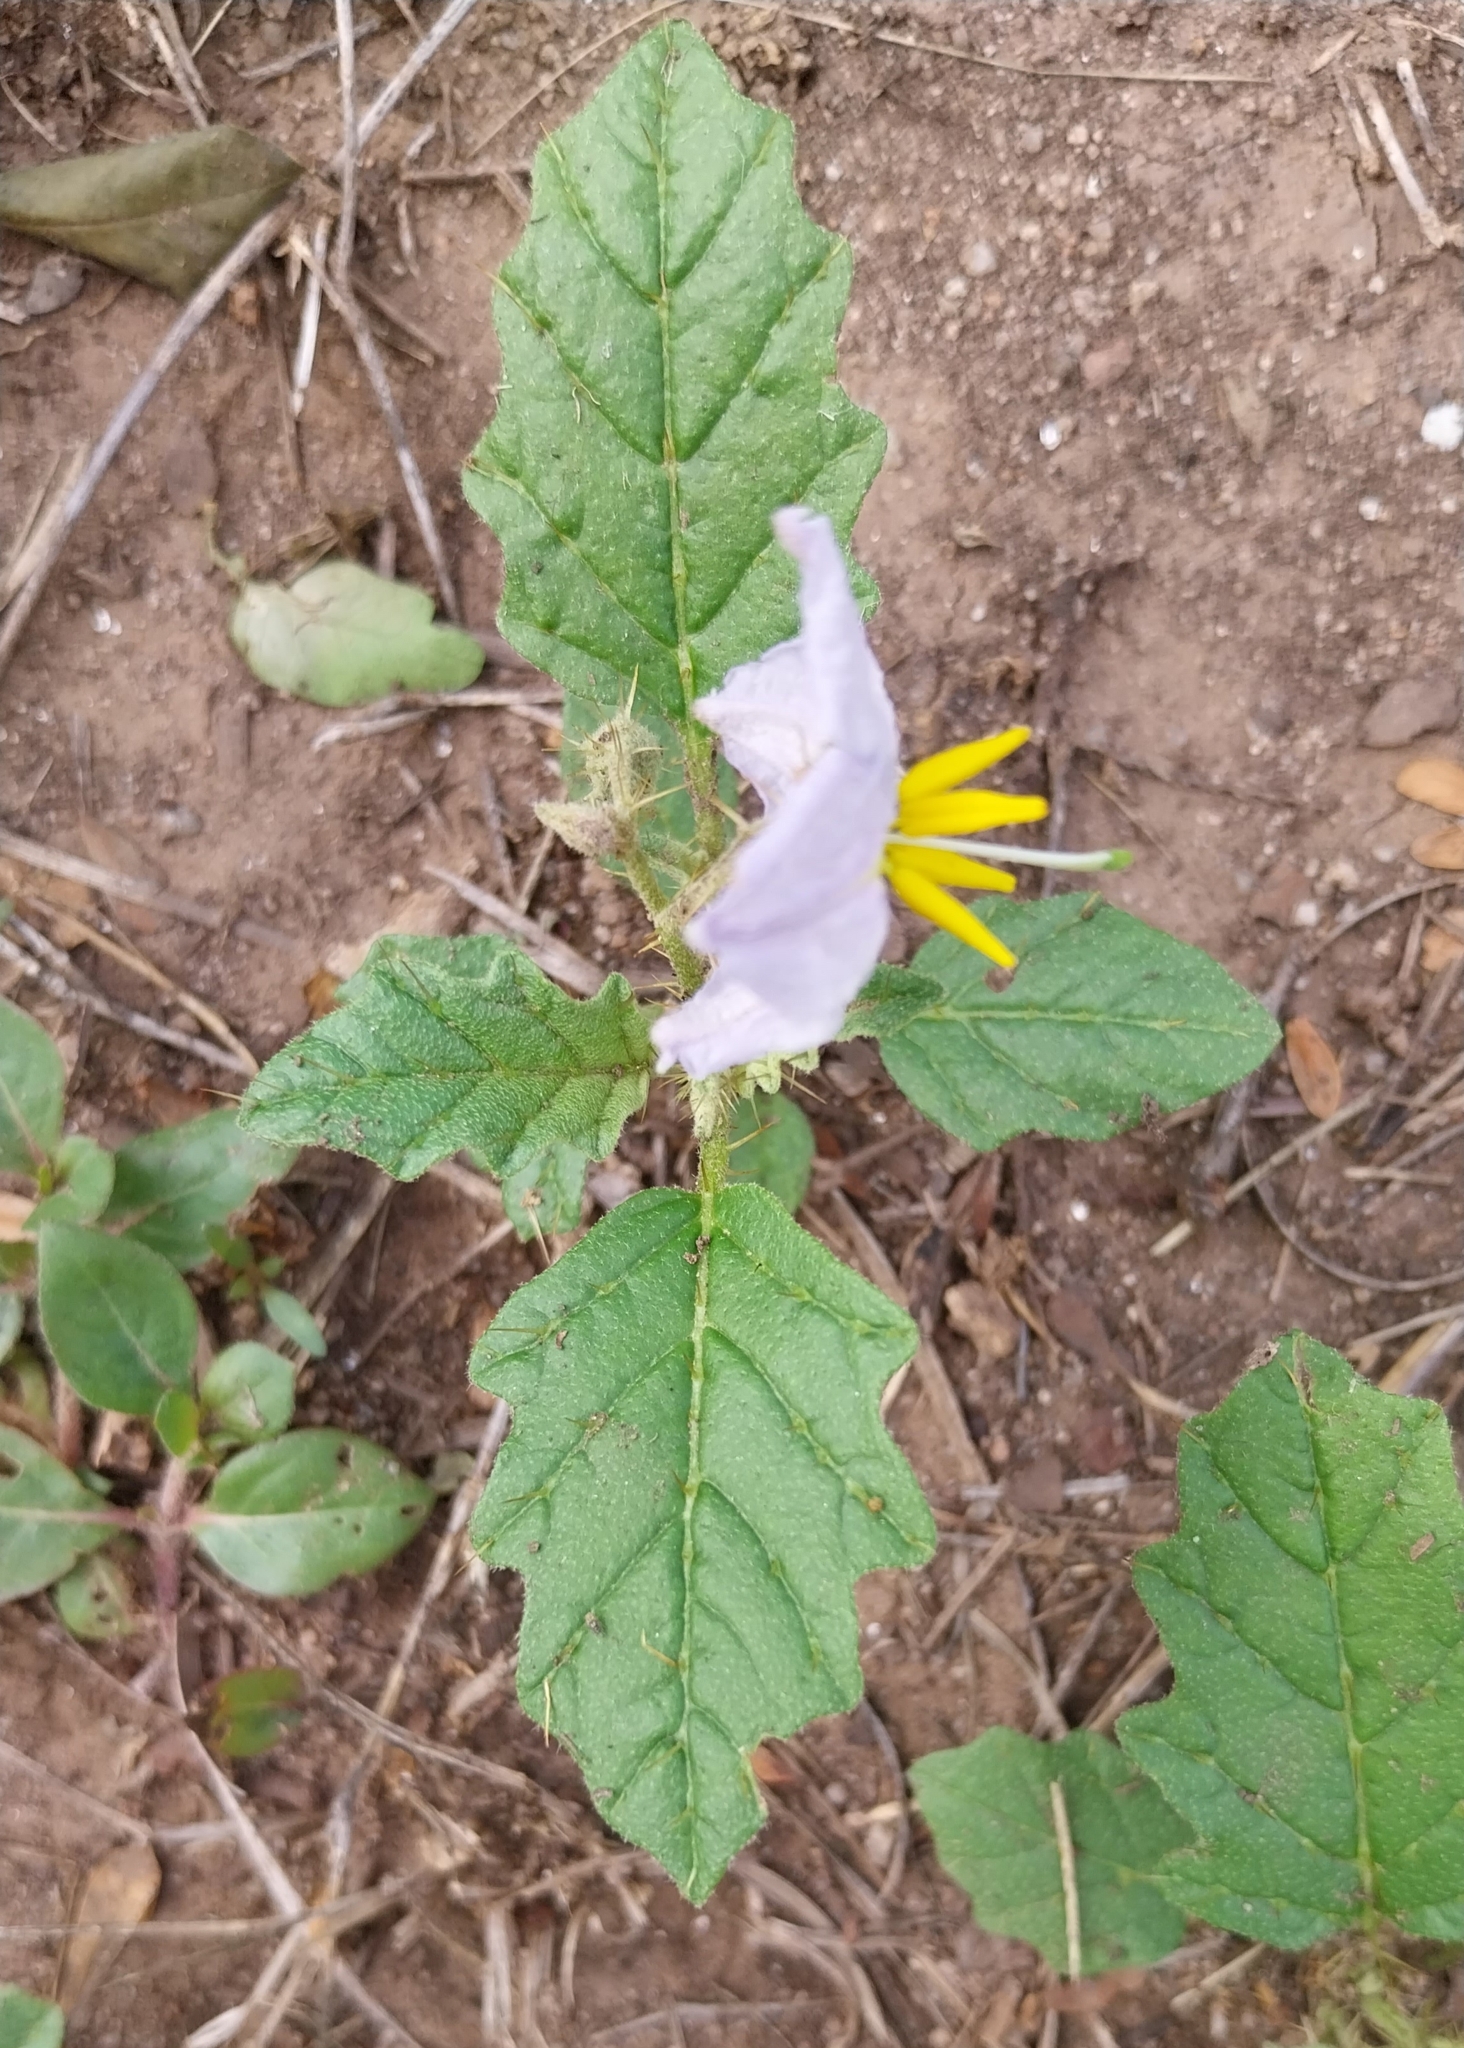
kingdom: Plantae
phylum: Tracheophyta
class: Magnoliopsida
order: Solanales
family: Solanaceae
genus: Solanum
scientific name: Solanum juvenale
